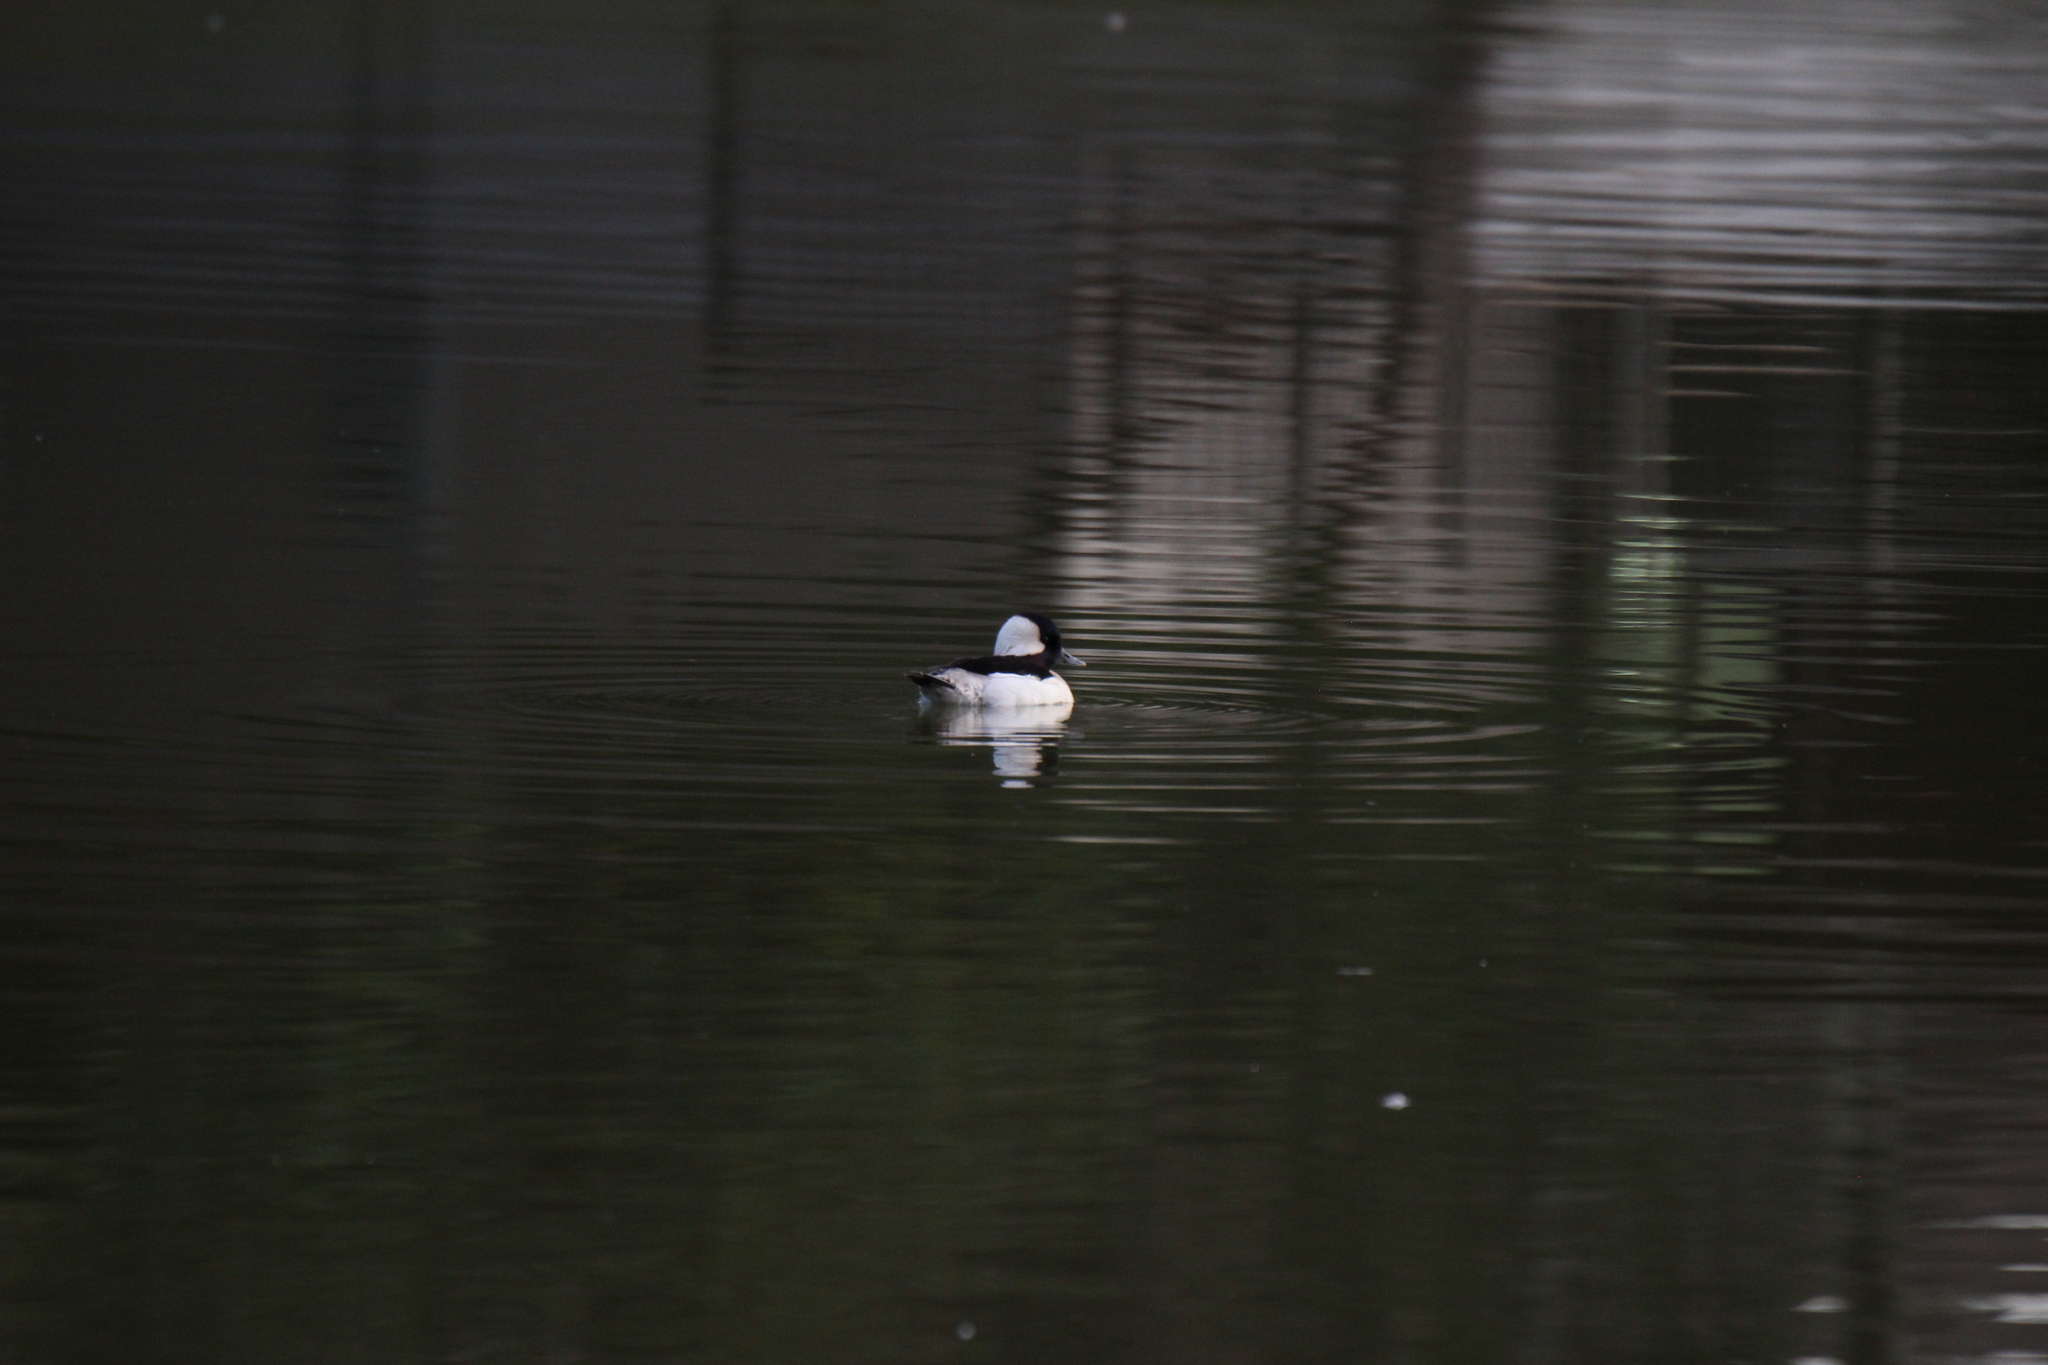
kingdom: Animalia
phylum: Chordata
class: Aves
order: Anseriformes
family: Anatidae
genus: Bucephala
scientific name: Bucephala albeola
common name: Bufflehead
